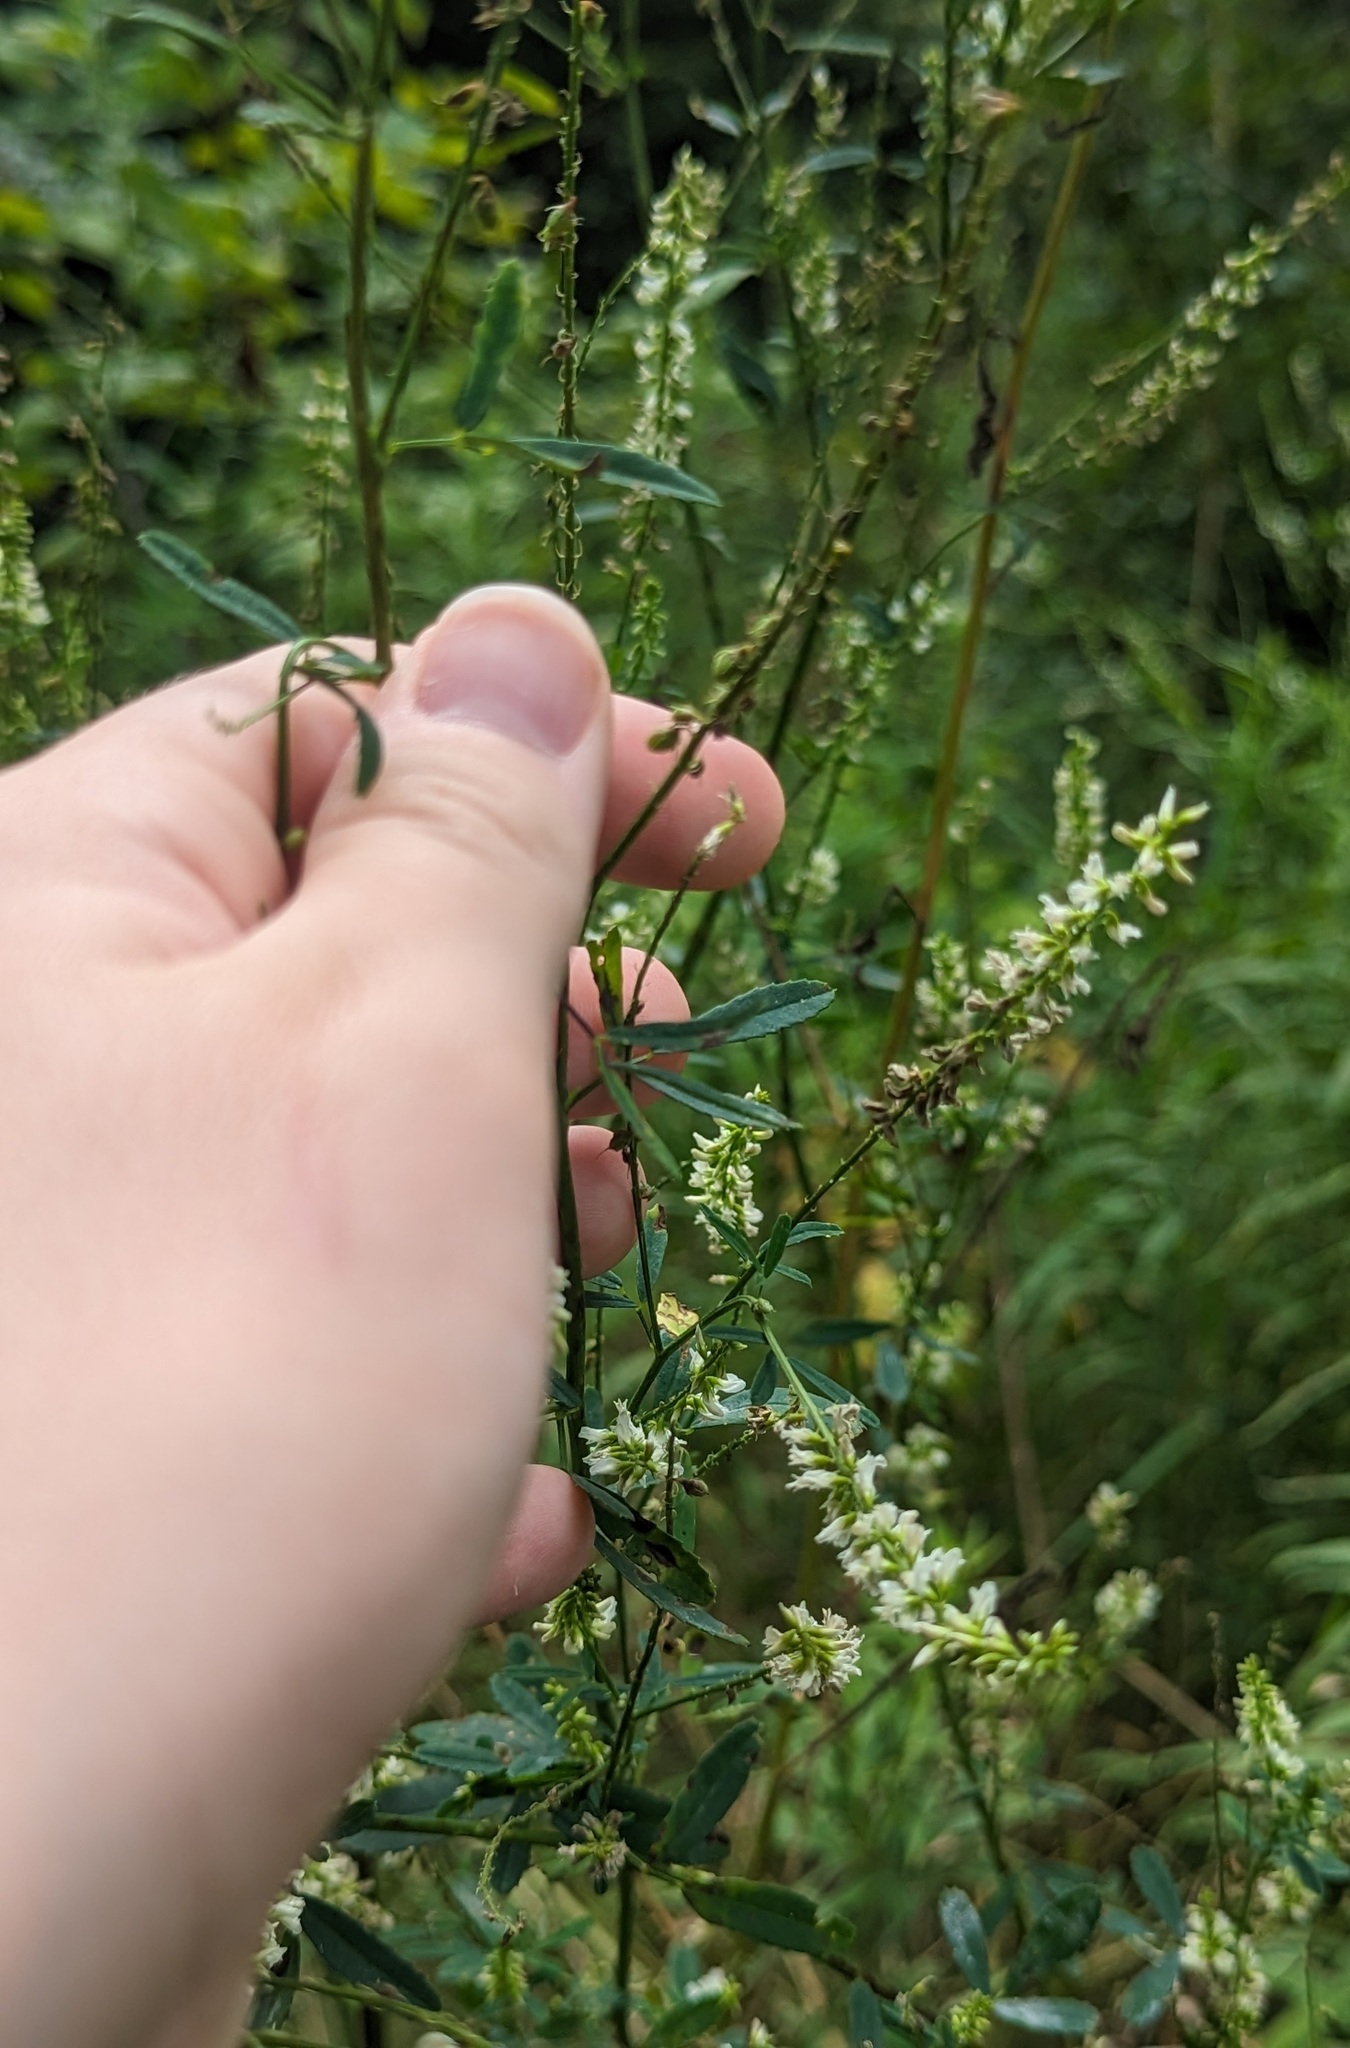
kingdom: Plantae
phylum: Tracheophyta
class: Magnoliopsida
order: Fabales
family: Fabaceae
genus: Melilotus
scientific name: Melilotus albus
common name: White melilot
